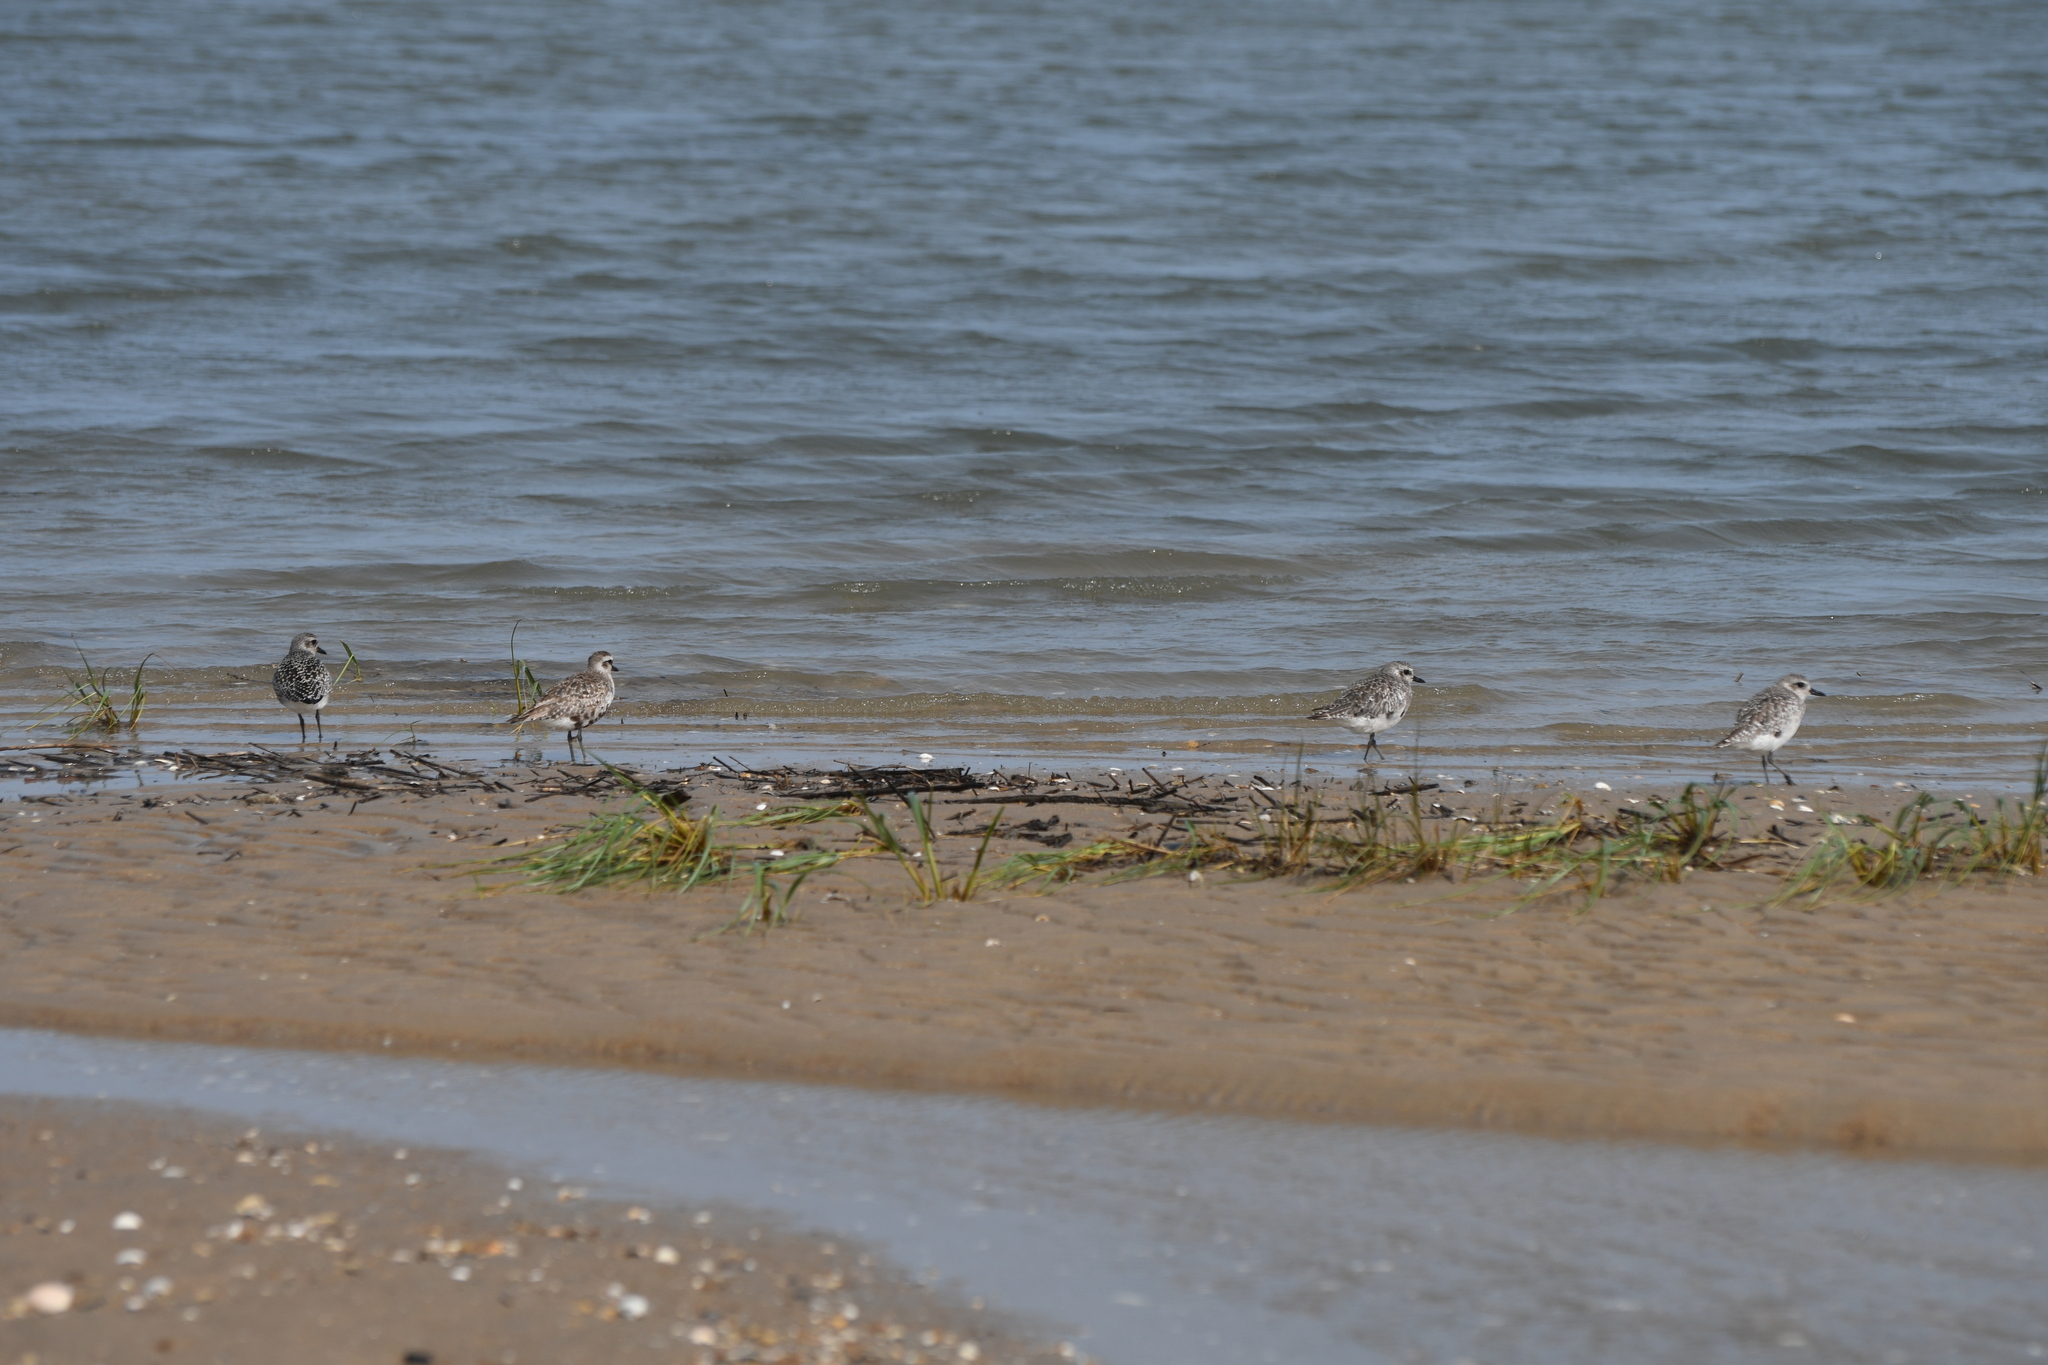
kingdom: Animalia
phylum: Chordata
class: Aves
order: Charadriiformes
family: Charadriidae
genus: Pluvialis
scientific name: Pluvialis squatarola
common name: Grey plover
